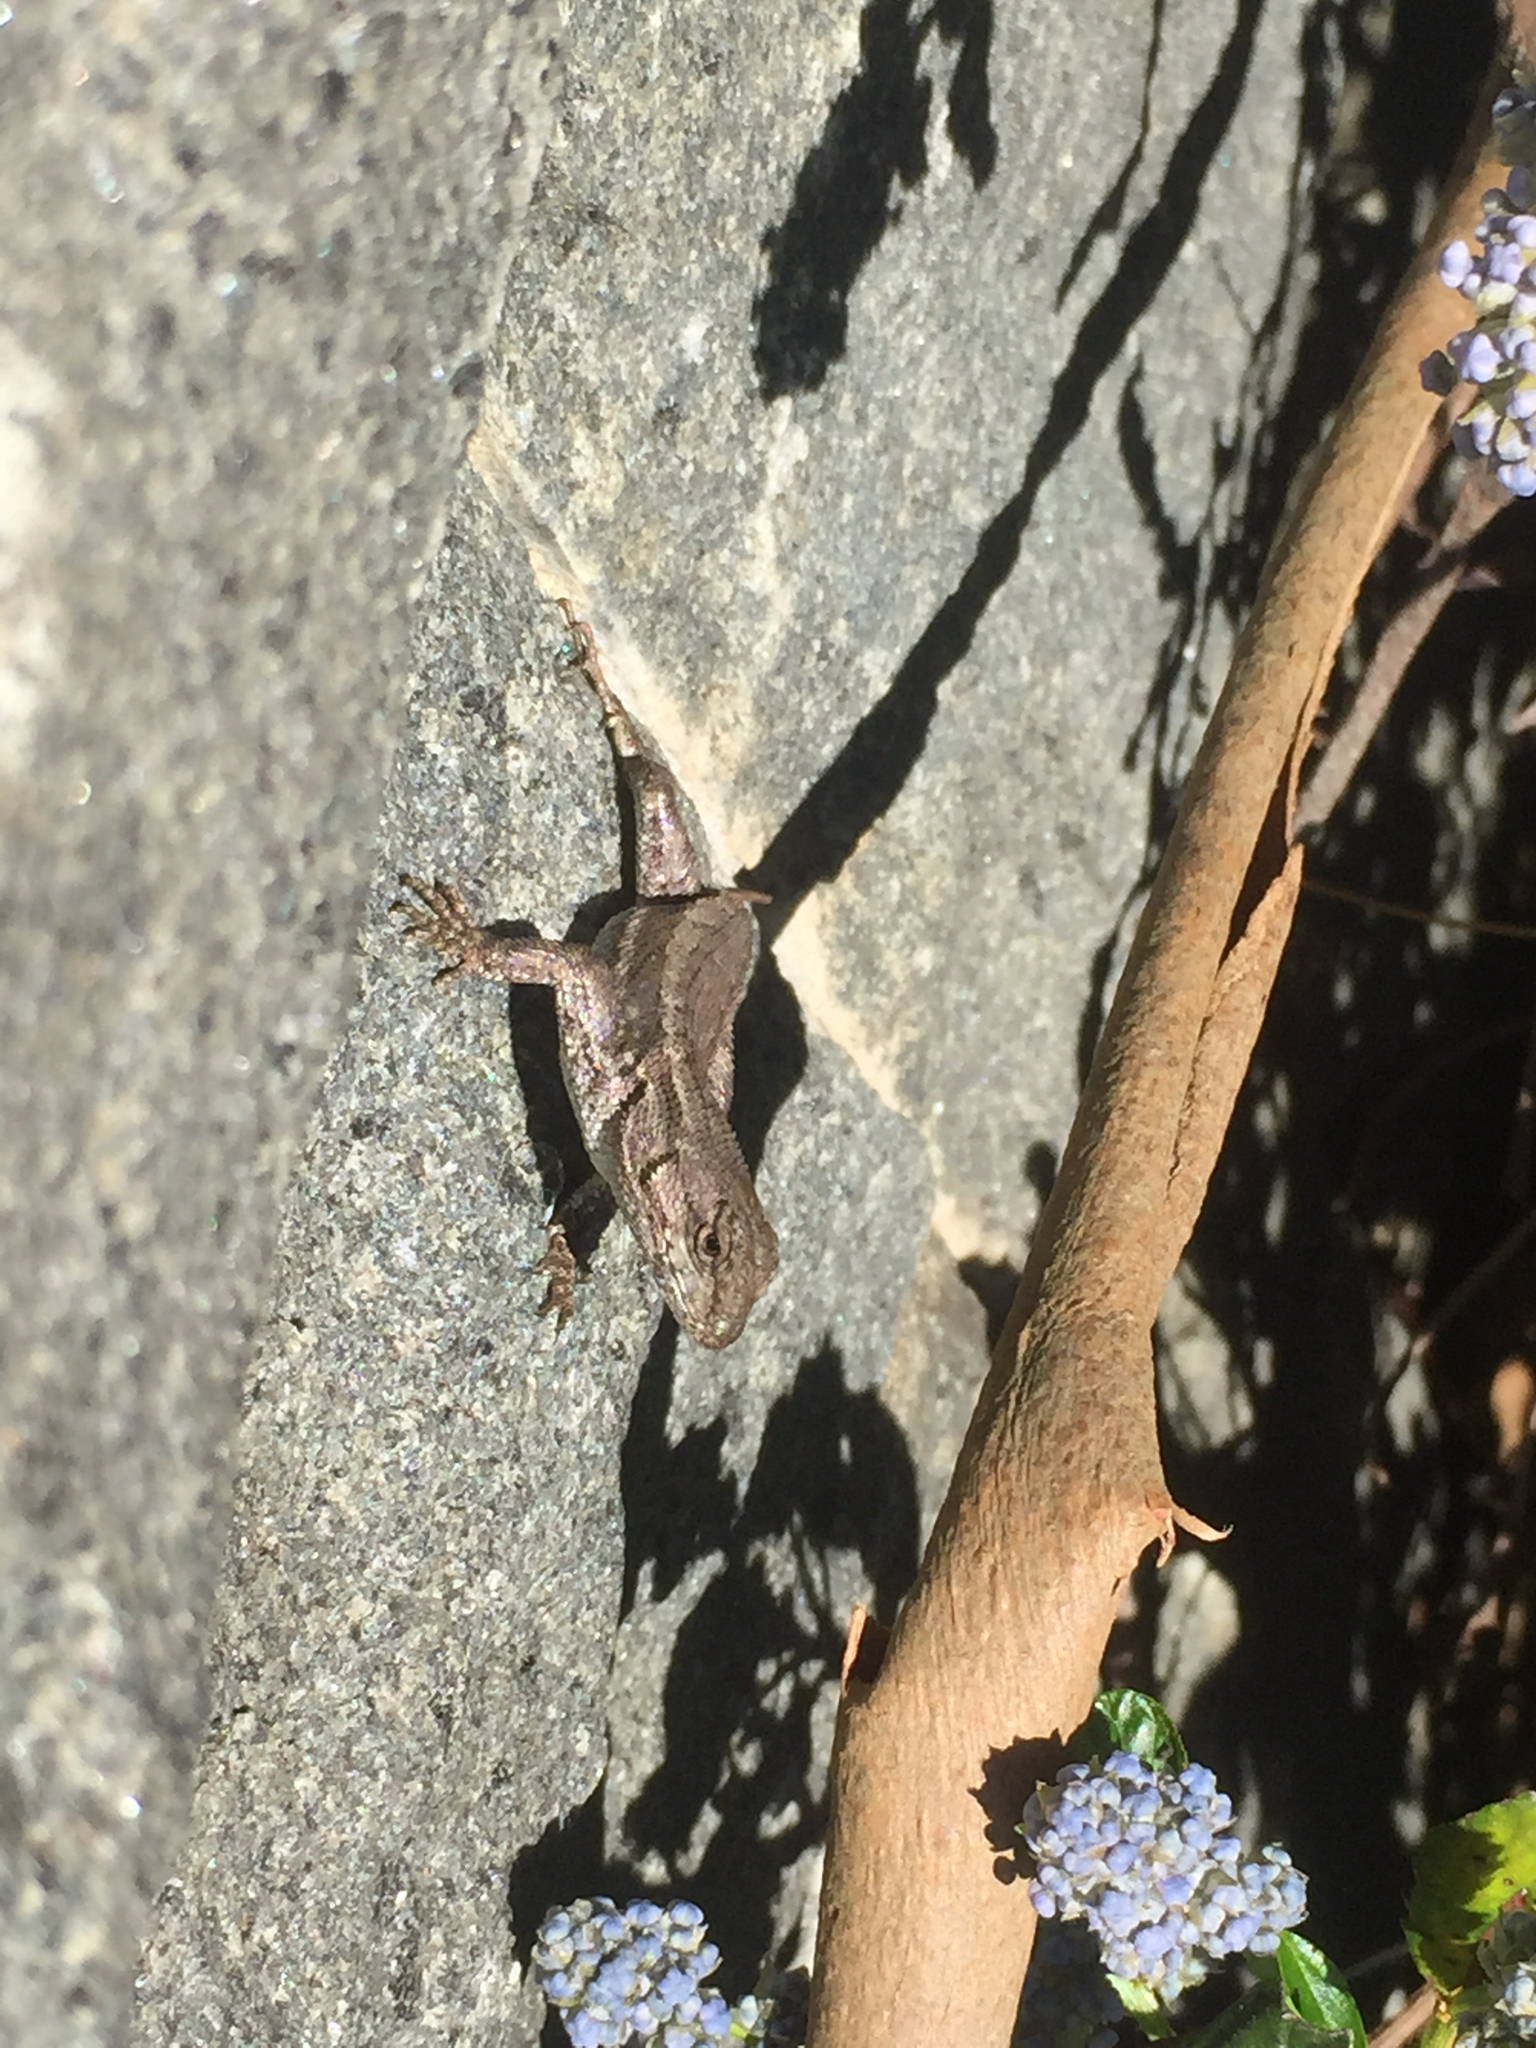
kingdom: Animalia
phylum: Chordata
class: Squamata
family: Phrynosomatidae
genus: Sceloporus
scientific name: Sceloporus occidentalis
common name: Western fence lizard
